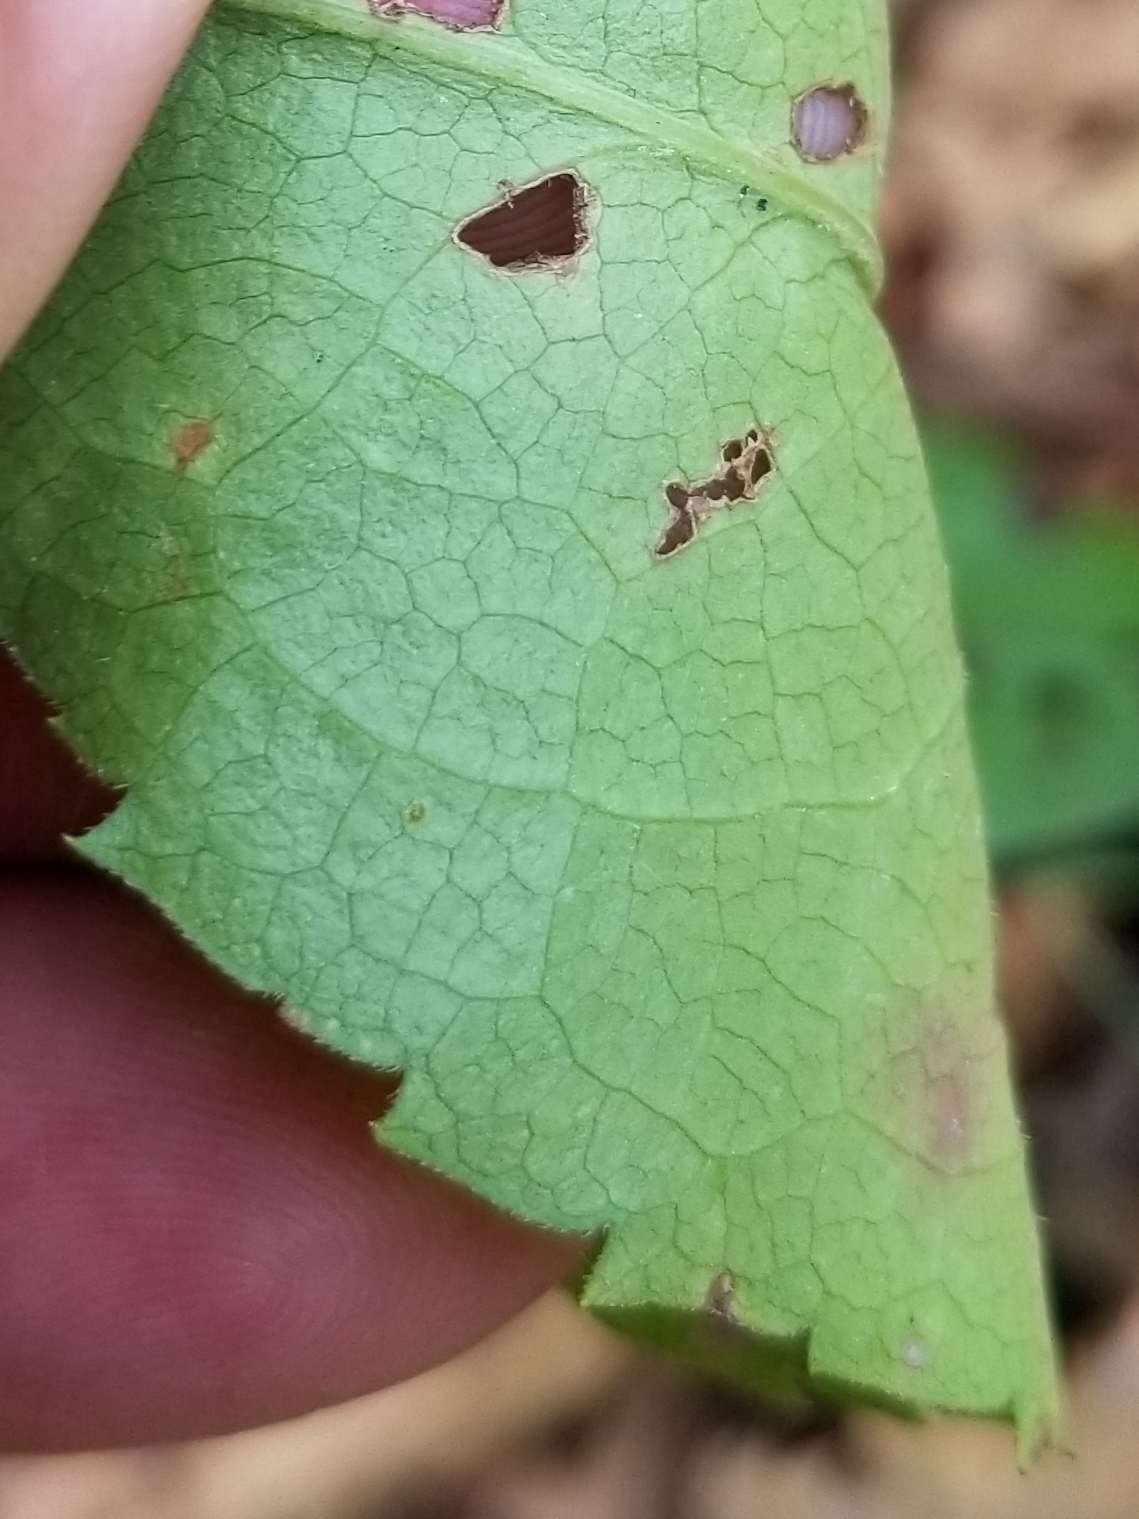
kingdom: Plantae
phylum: Tracheophyta
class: Magnoliopsida
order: Asterales
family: Asteraceae
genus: Symphyotrichum
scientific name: Symphyotrichum cordifolium
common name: Beeweed
